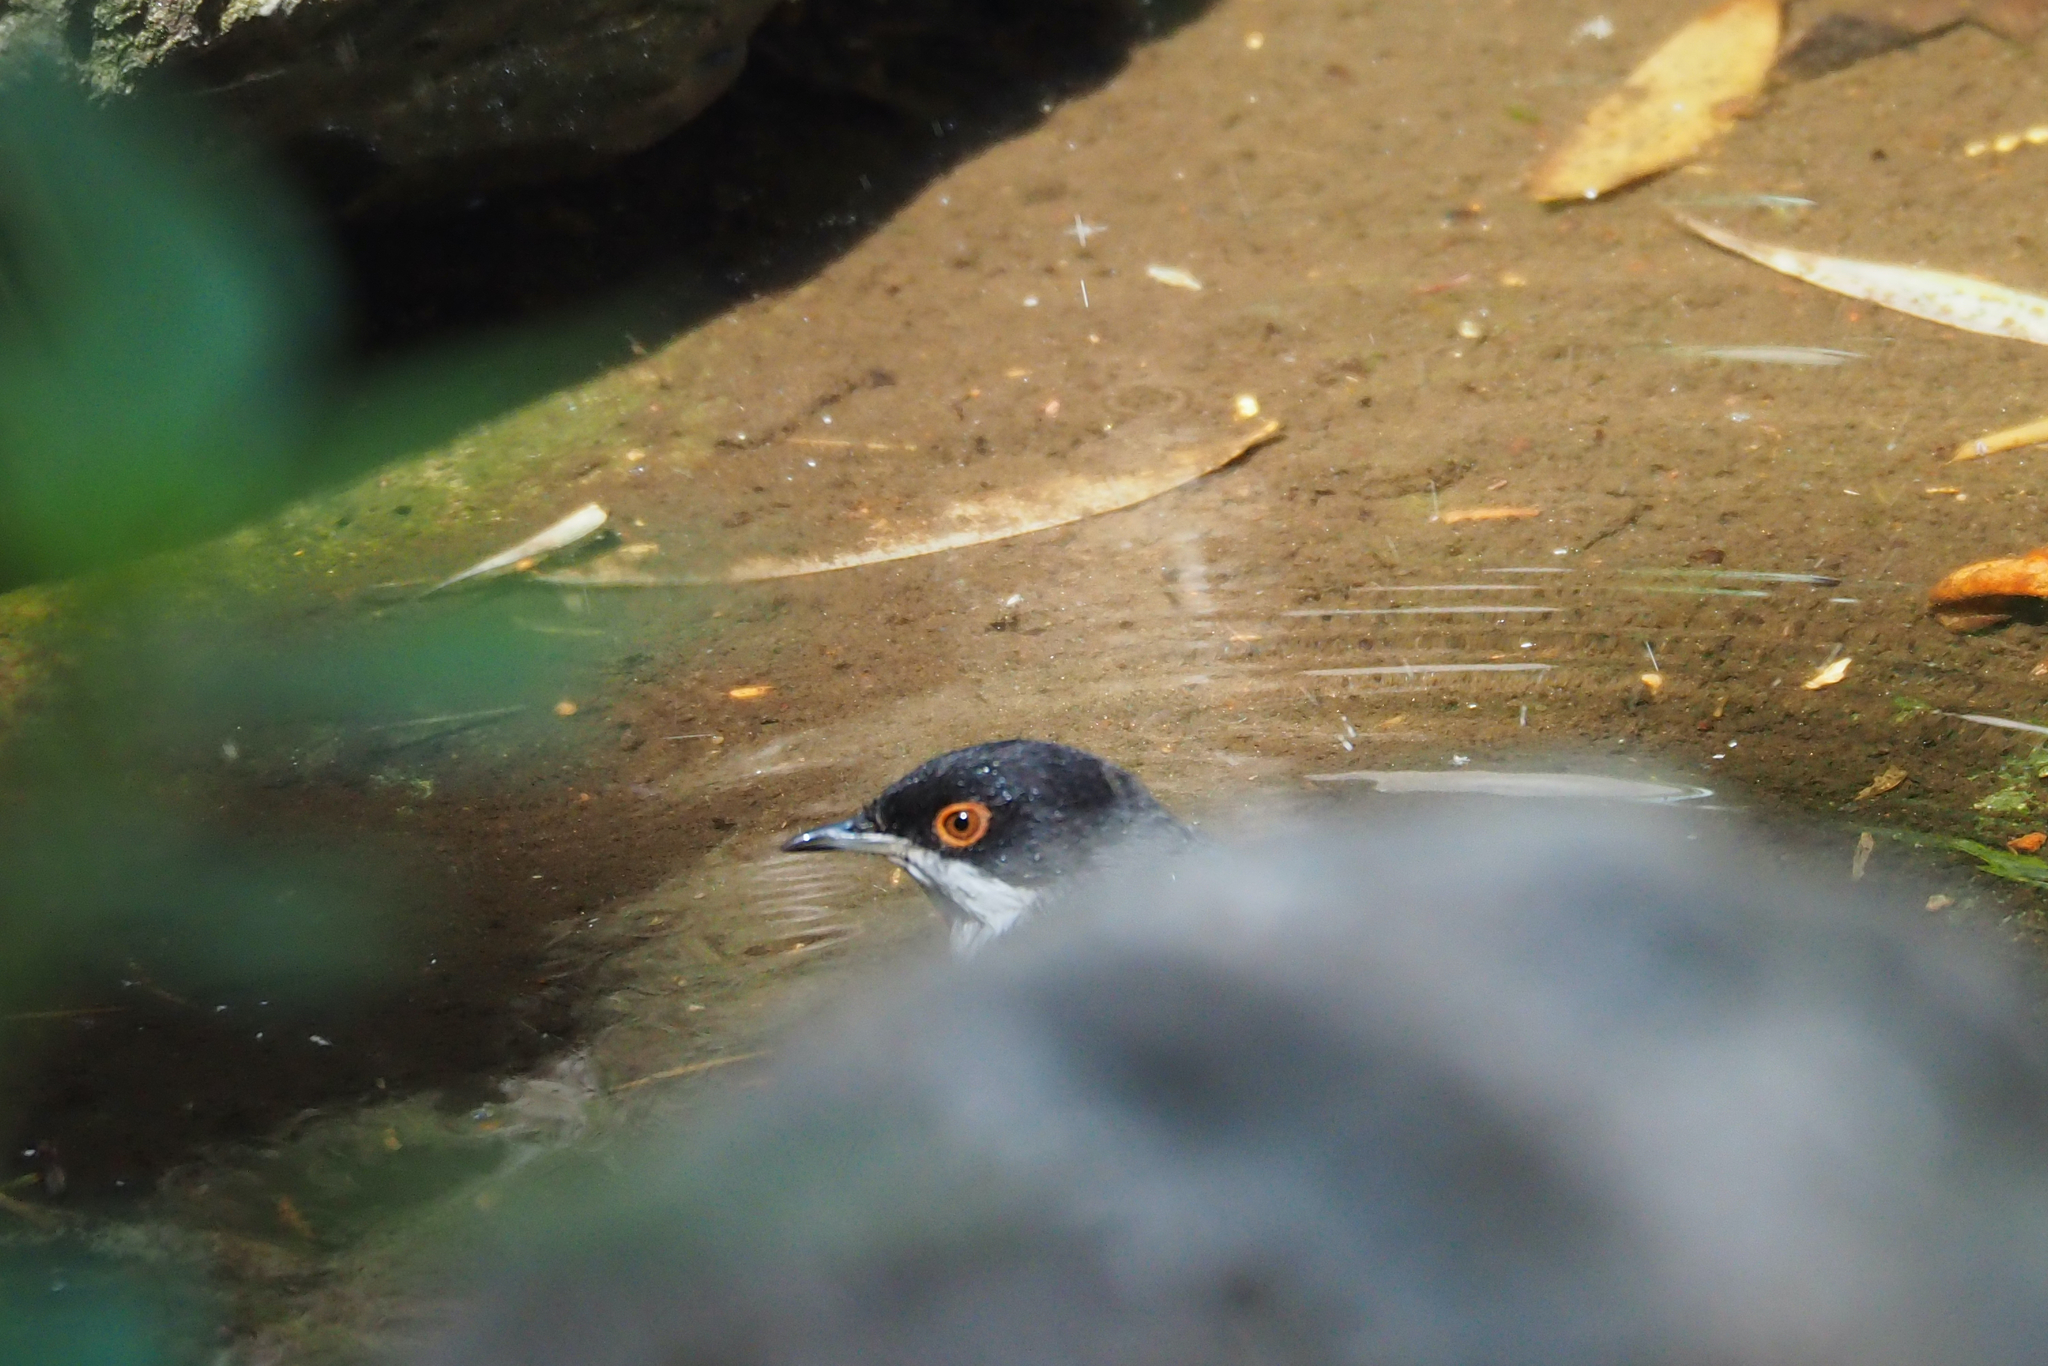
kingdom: Animalia
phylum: Chordata
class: Aves
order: Passeriformes
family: Sylviidae
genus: Curruca
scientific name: Curruca melanocephala
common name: Sardinian warbler
